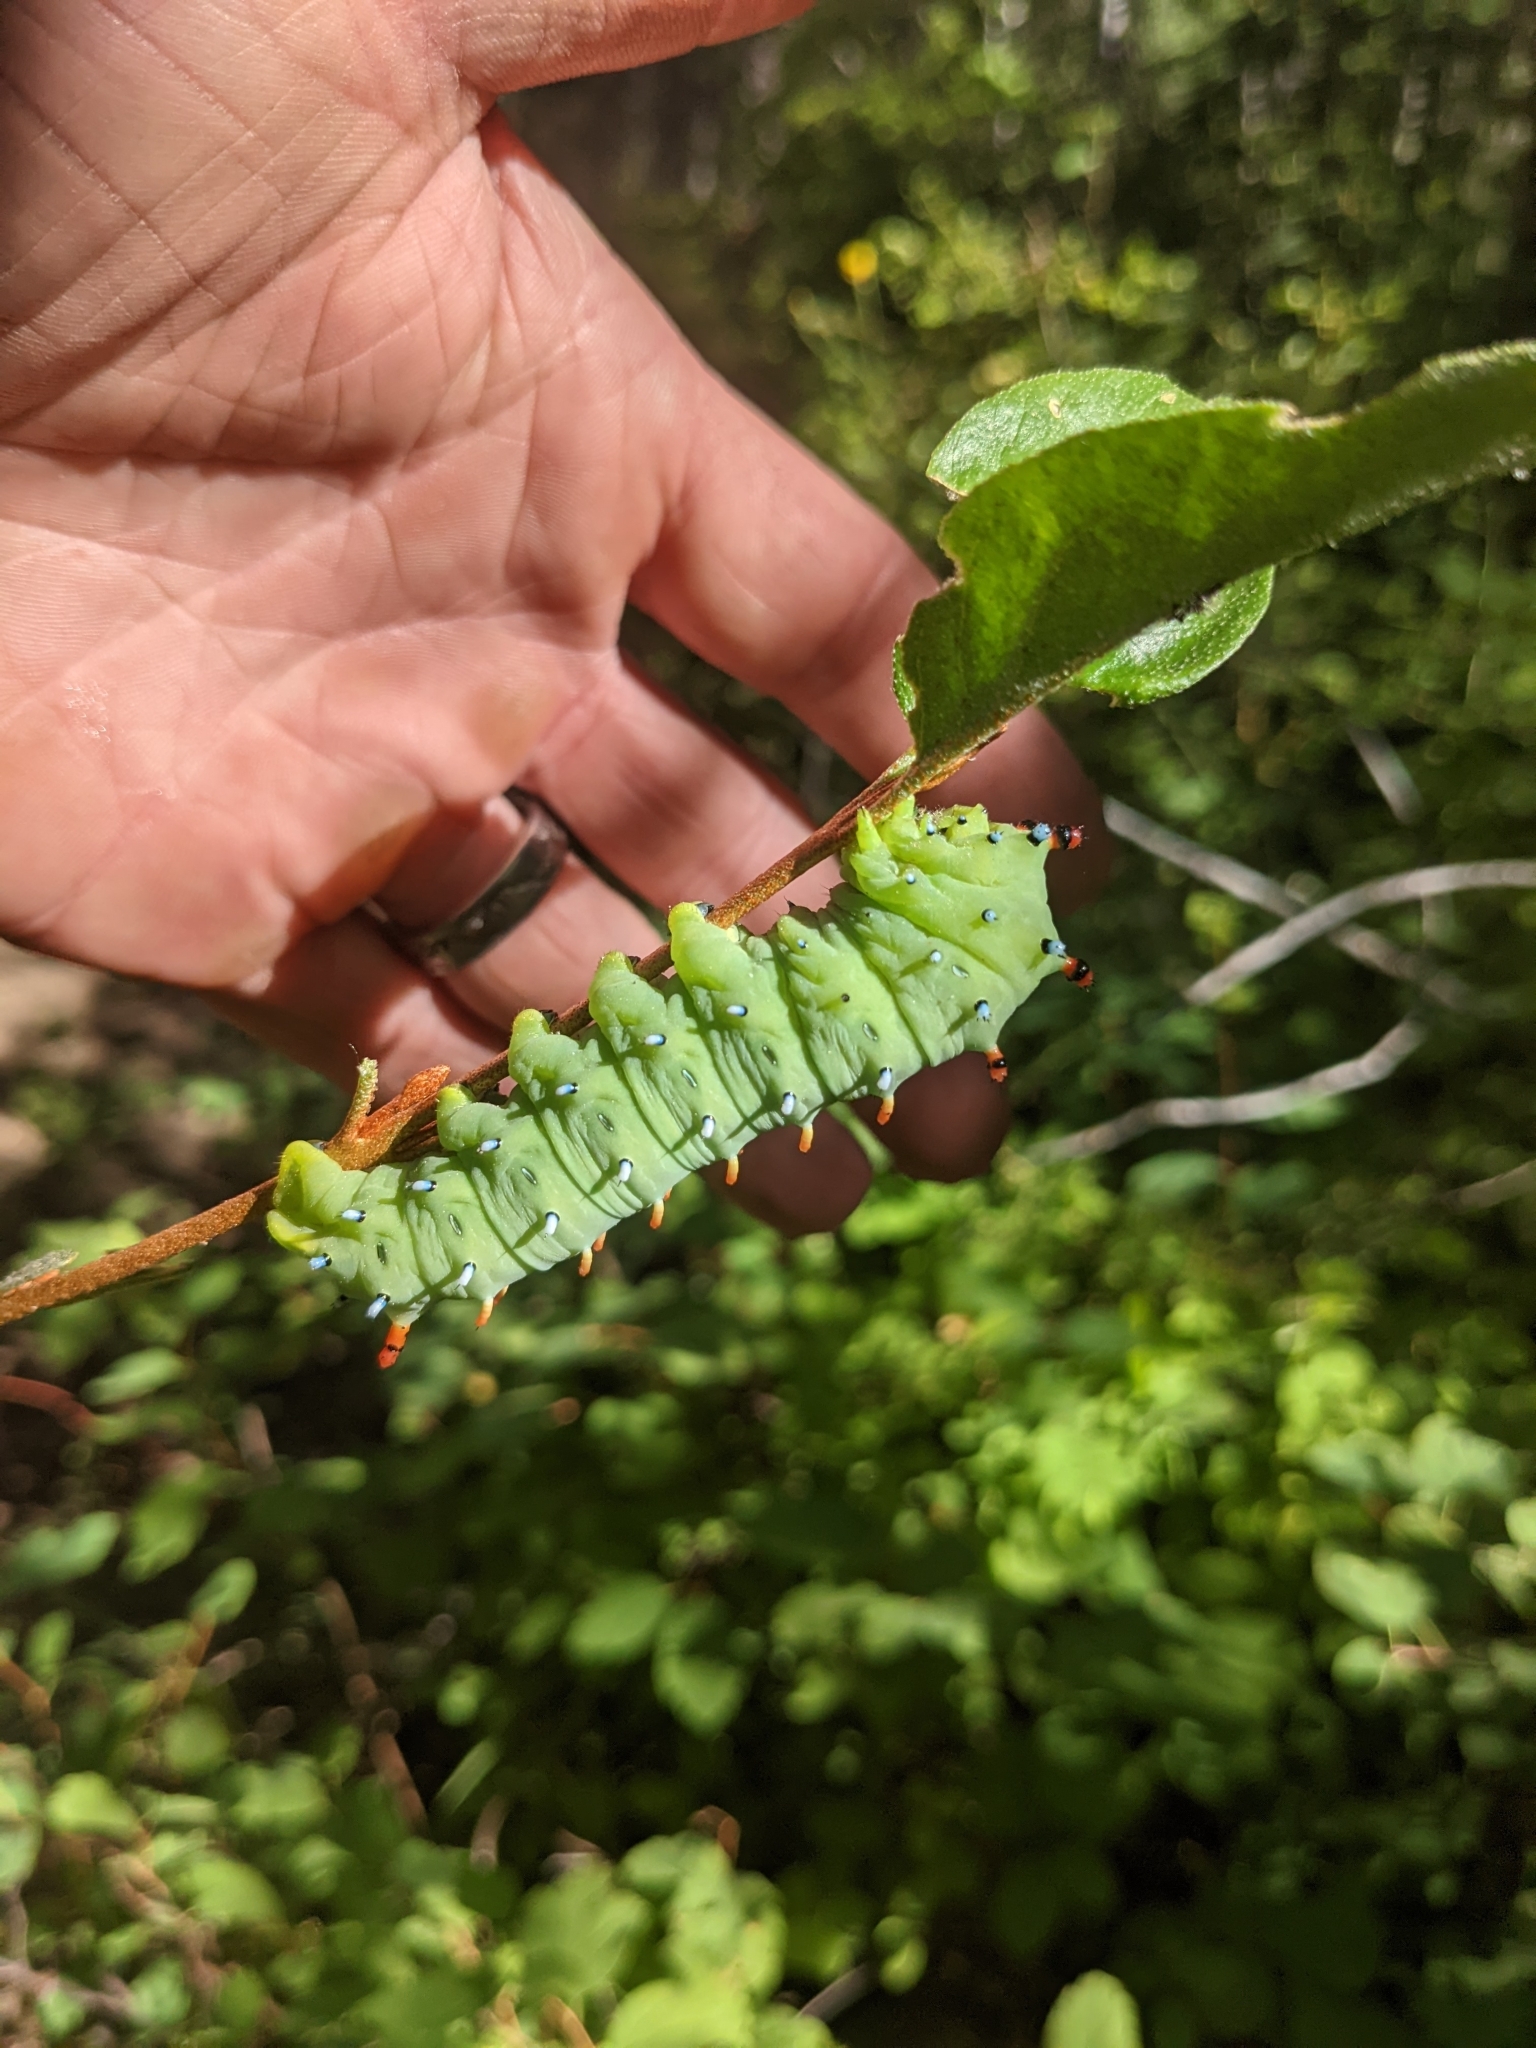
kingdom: Animalia
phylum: Arthropoda
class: Insecta
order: Lepidoptera
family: Saturniidae
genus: Hyalophora
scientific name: Hyalophora euryalus
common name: Ceanothus silkmoth
